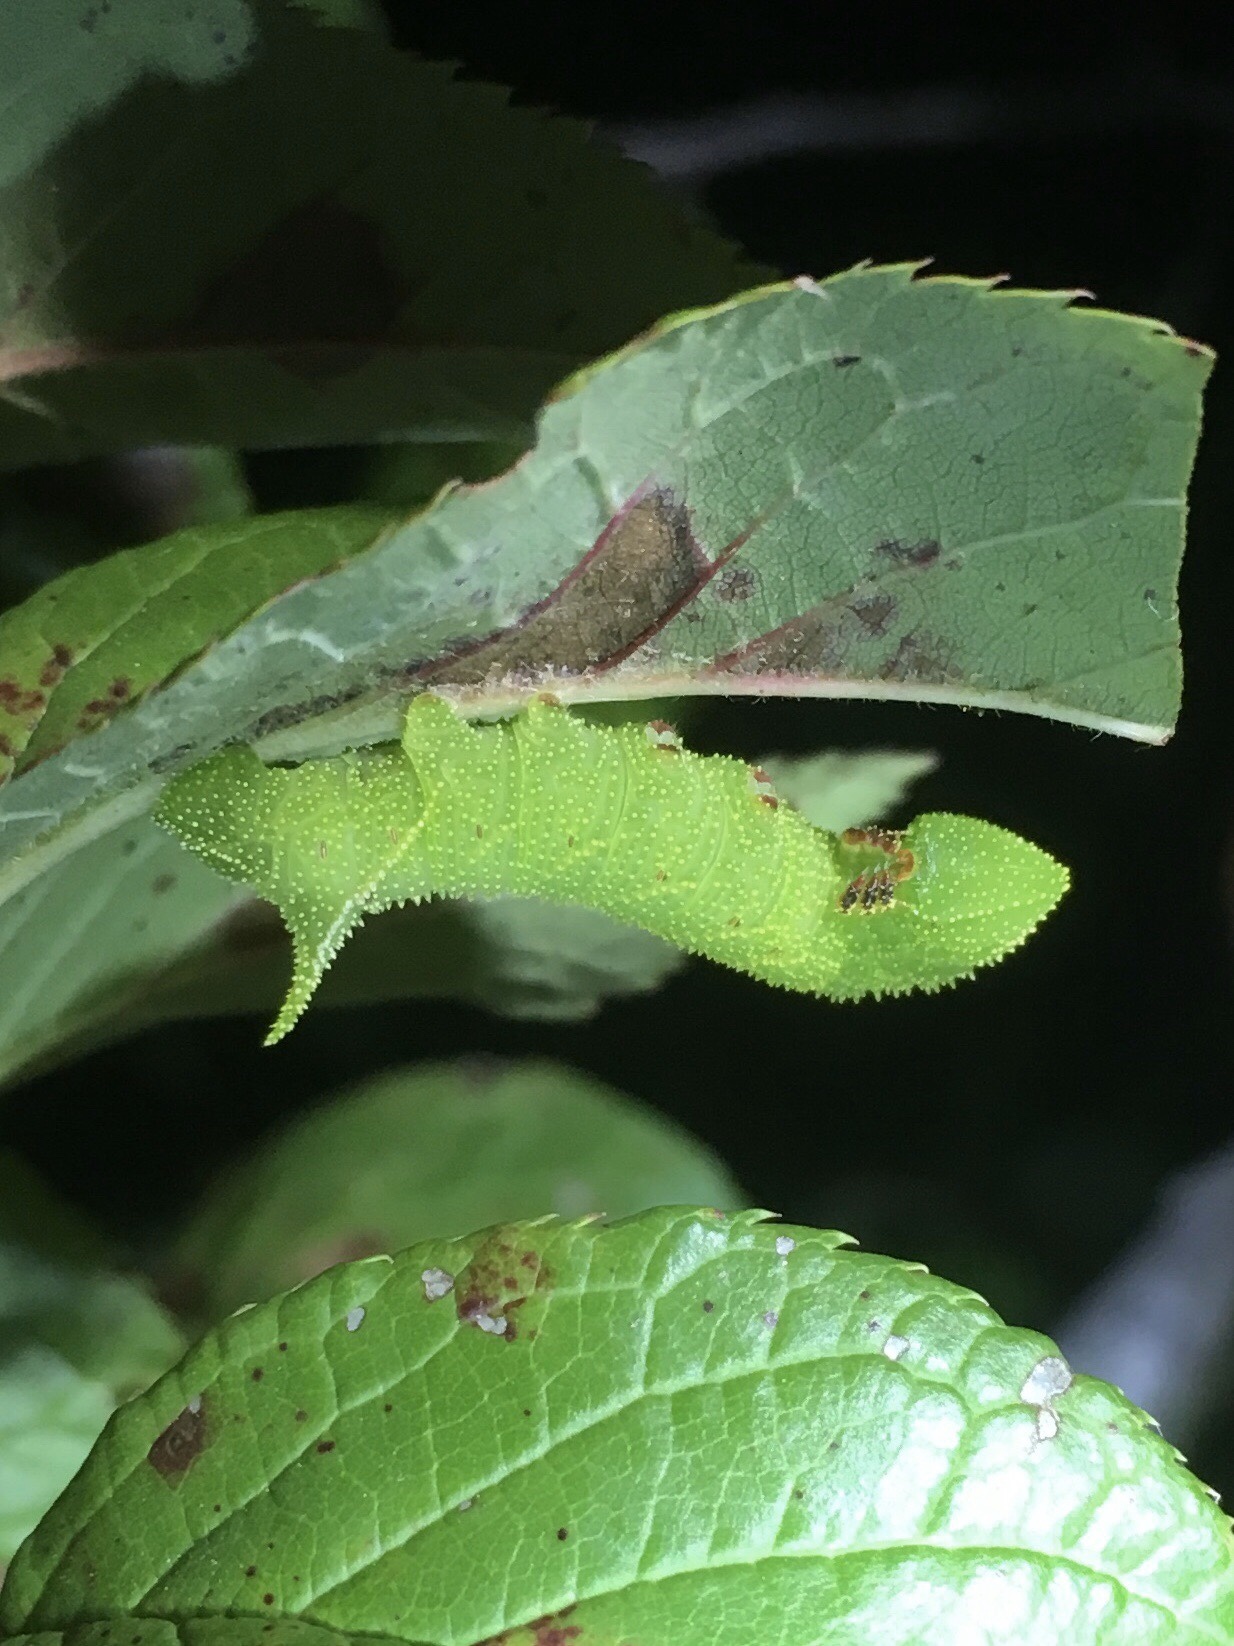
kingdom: Animalia
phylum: Arthropoda
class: Insecta
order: Lepidoptera
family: Sphingidae
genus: Paonias
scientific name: Paonias excaecata
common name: Blind-eyed sphinx
